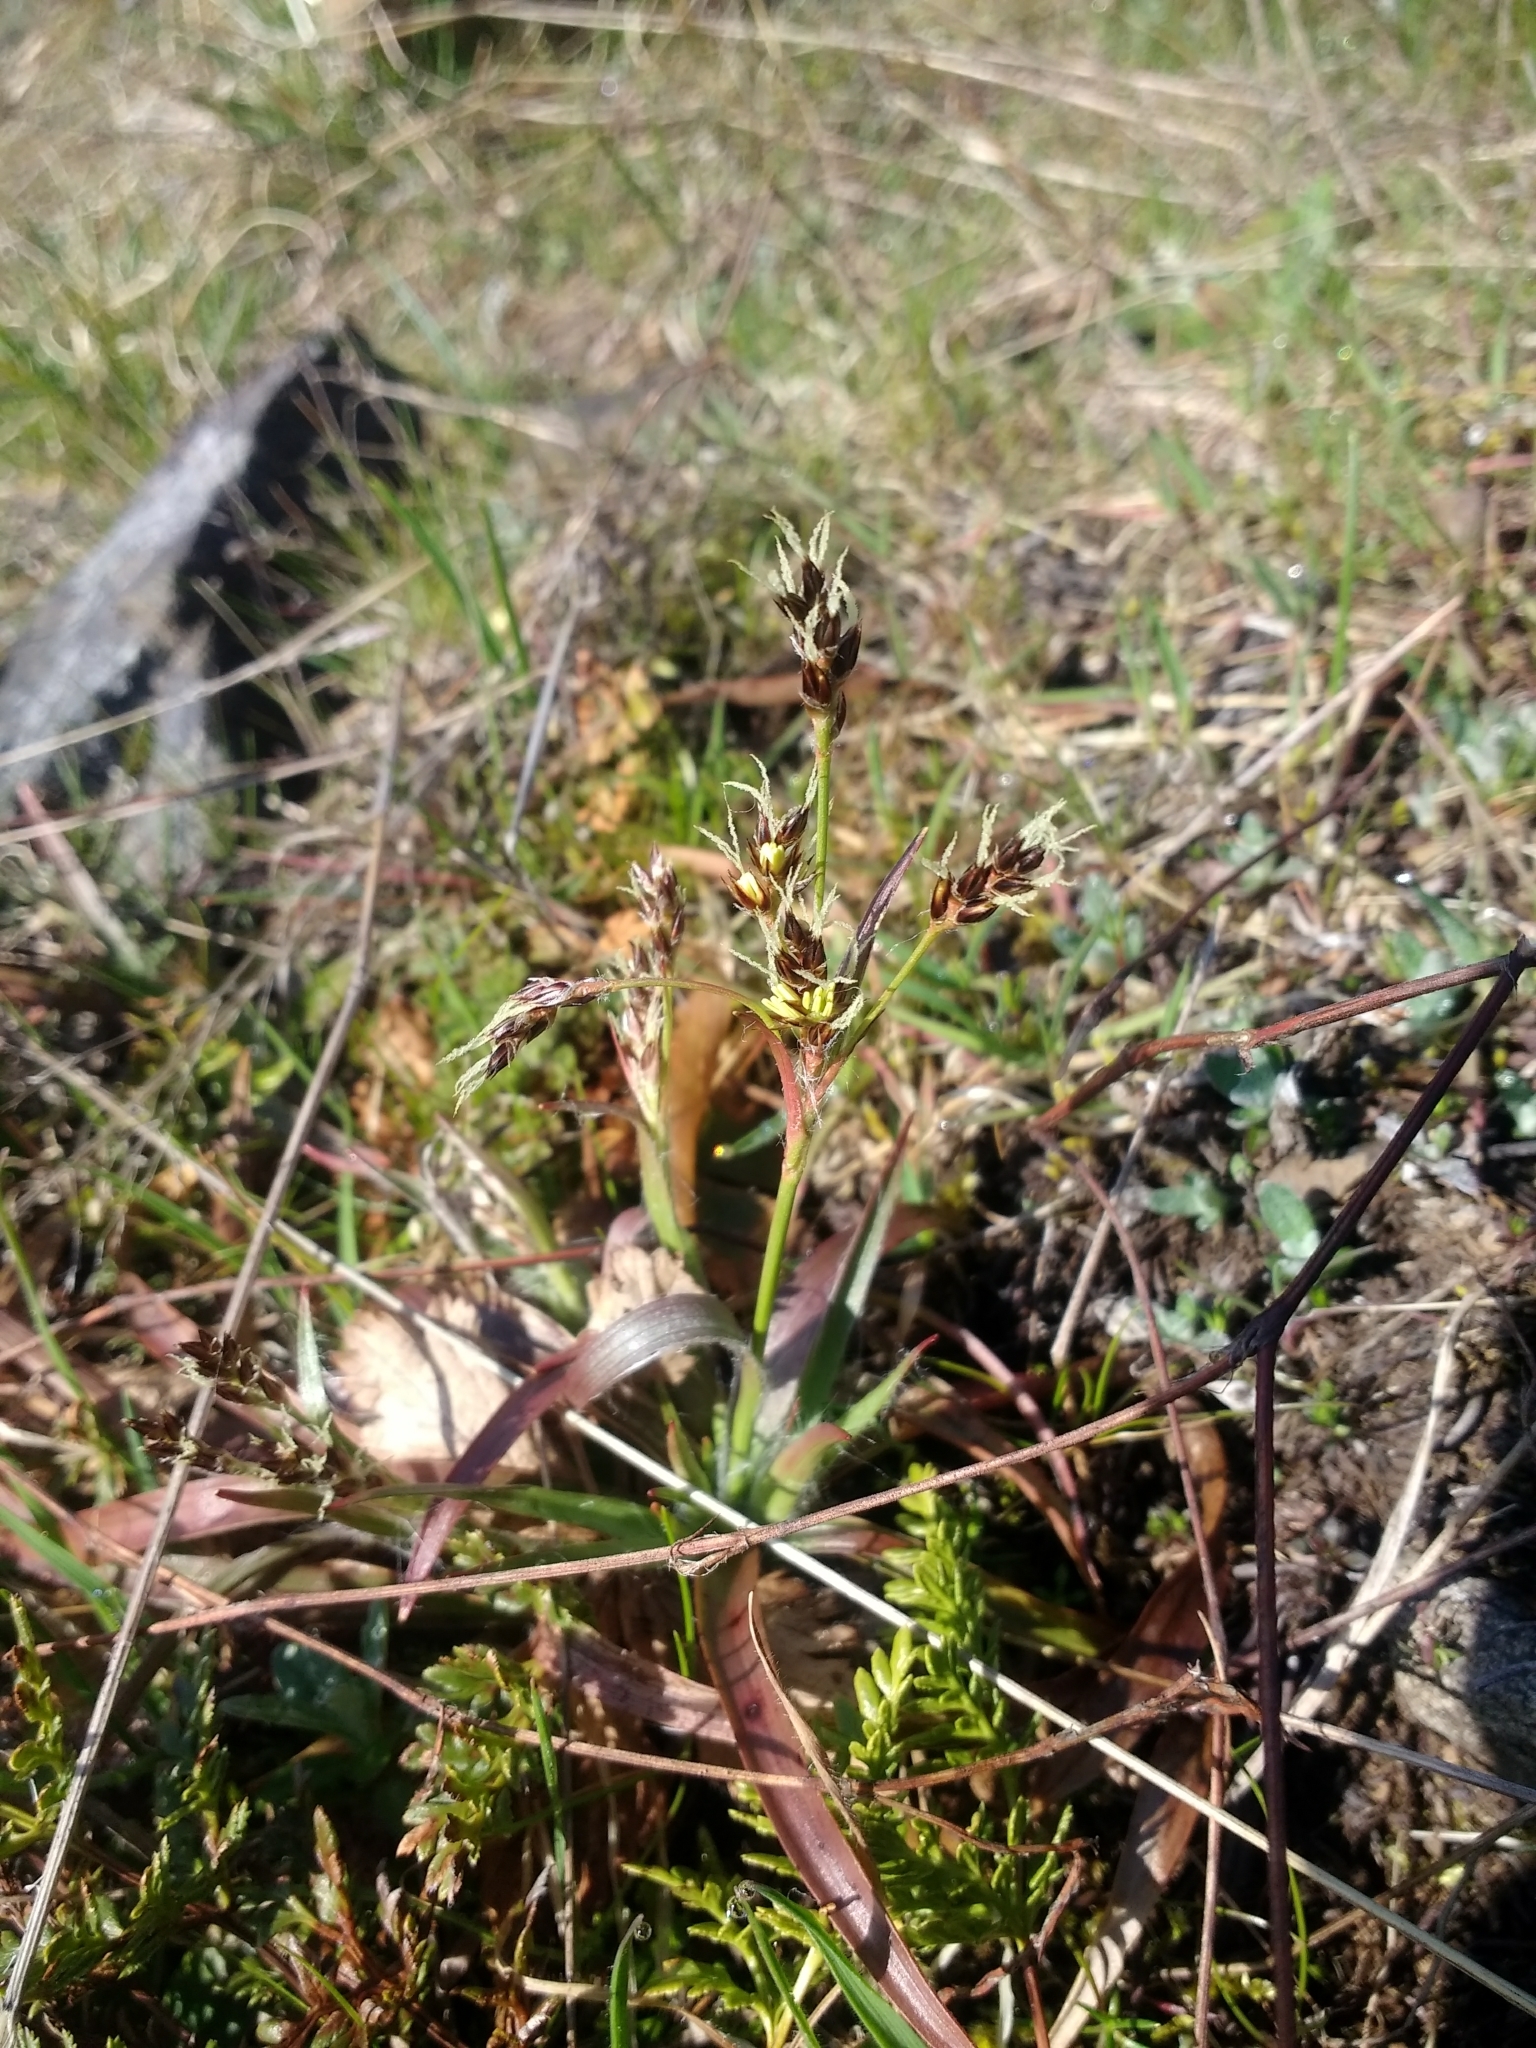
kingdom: Plantae
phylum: Tracheophyta
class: Liliopsida
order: Poales
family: Juncaceae
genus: Luzula
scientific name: Luzula comosa
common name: Pacific woodrush
